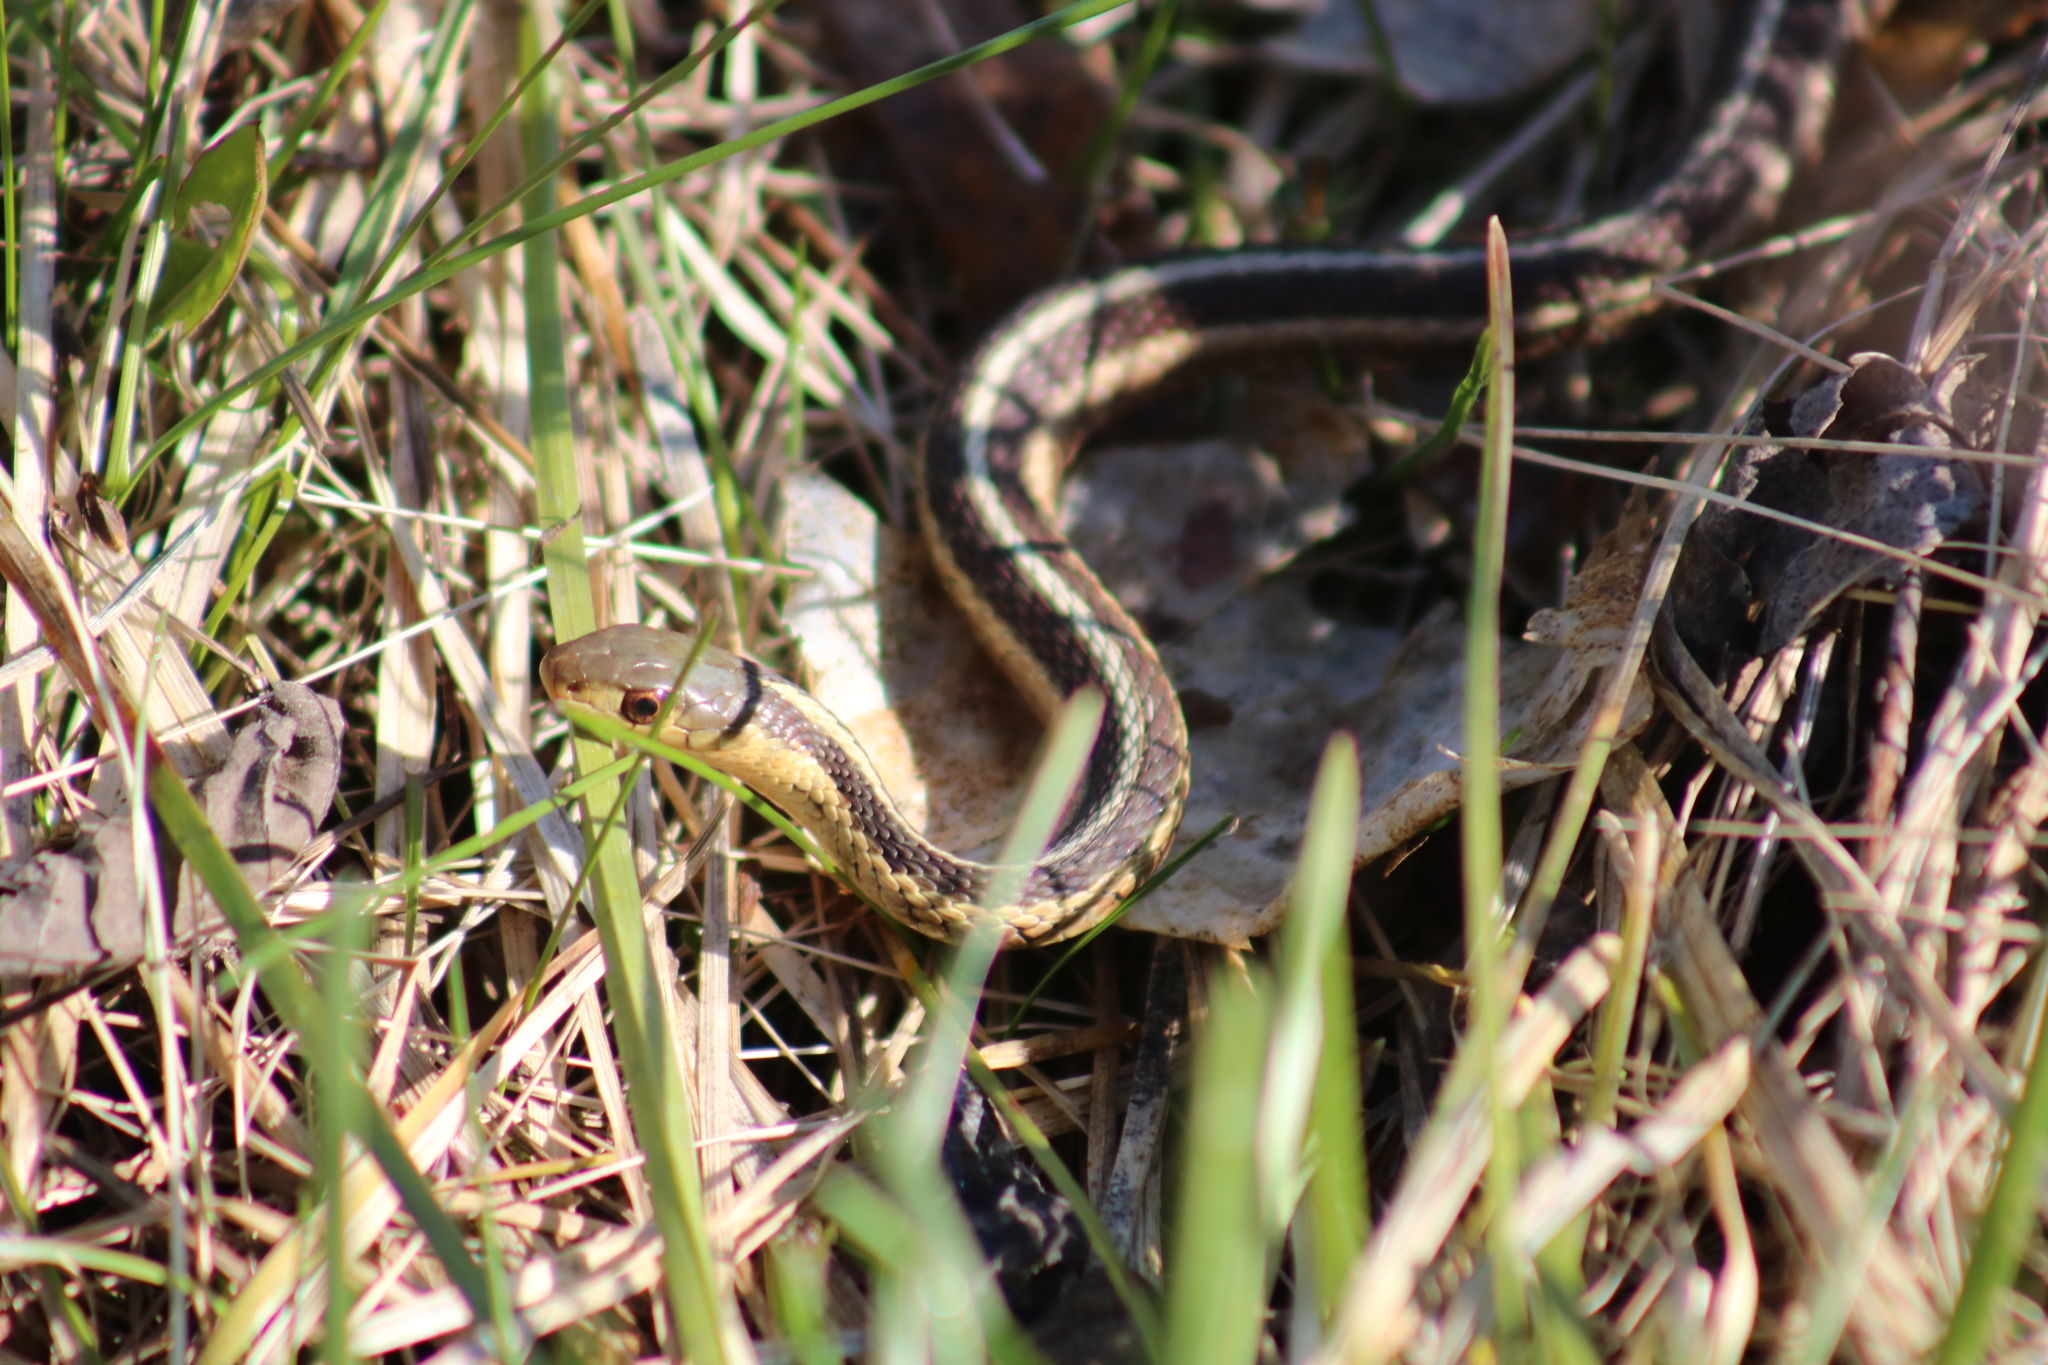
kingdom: Animalia
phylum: Chordata
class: Squamata
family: Colubridae
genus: Thamnophis
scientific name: Thamnophis sirtalis
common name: Common garter snake
